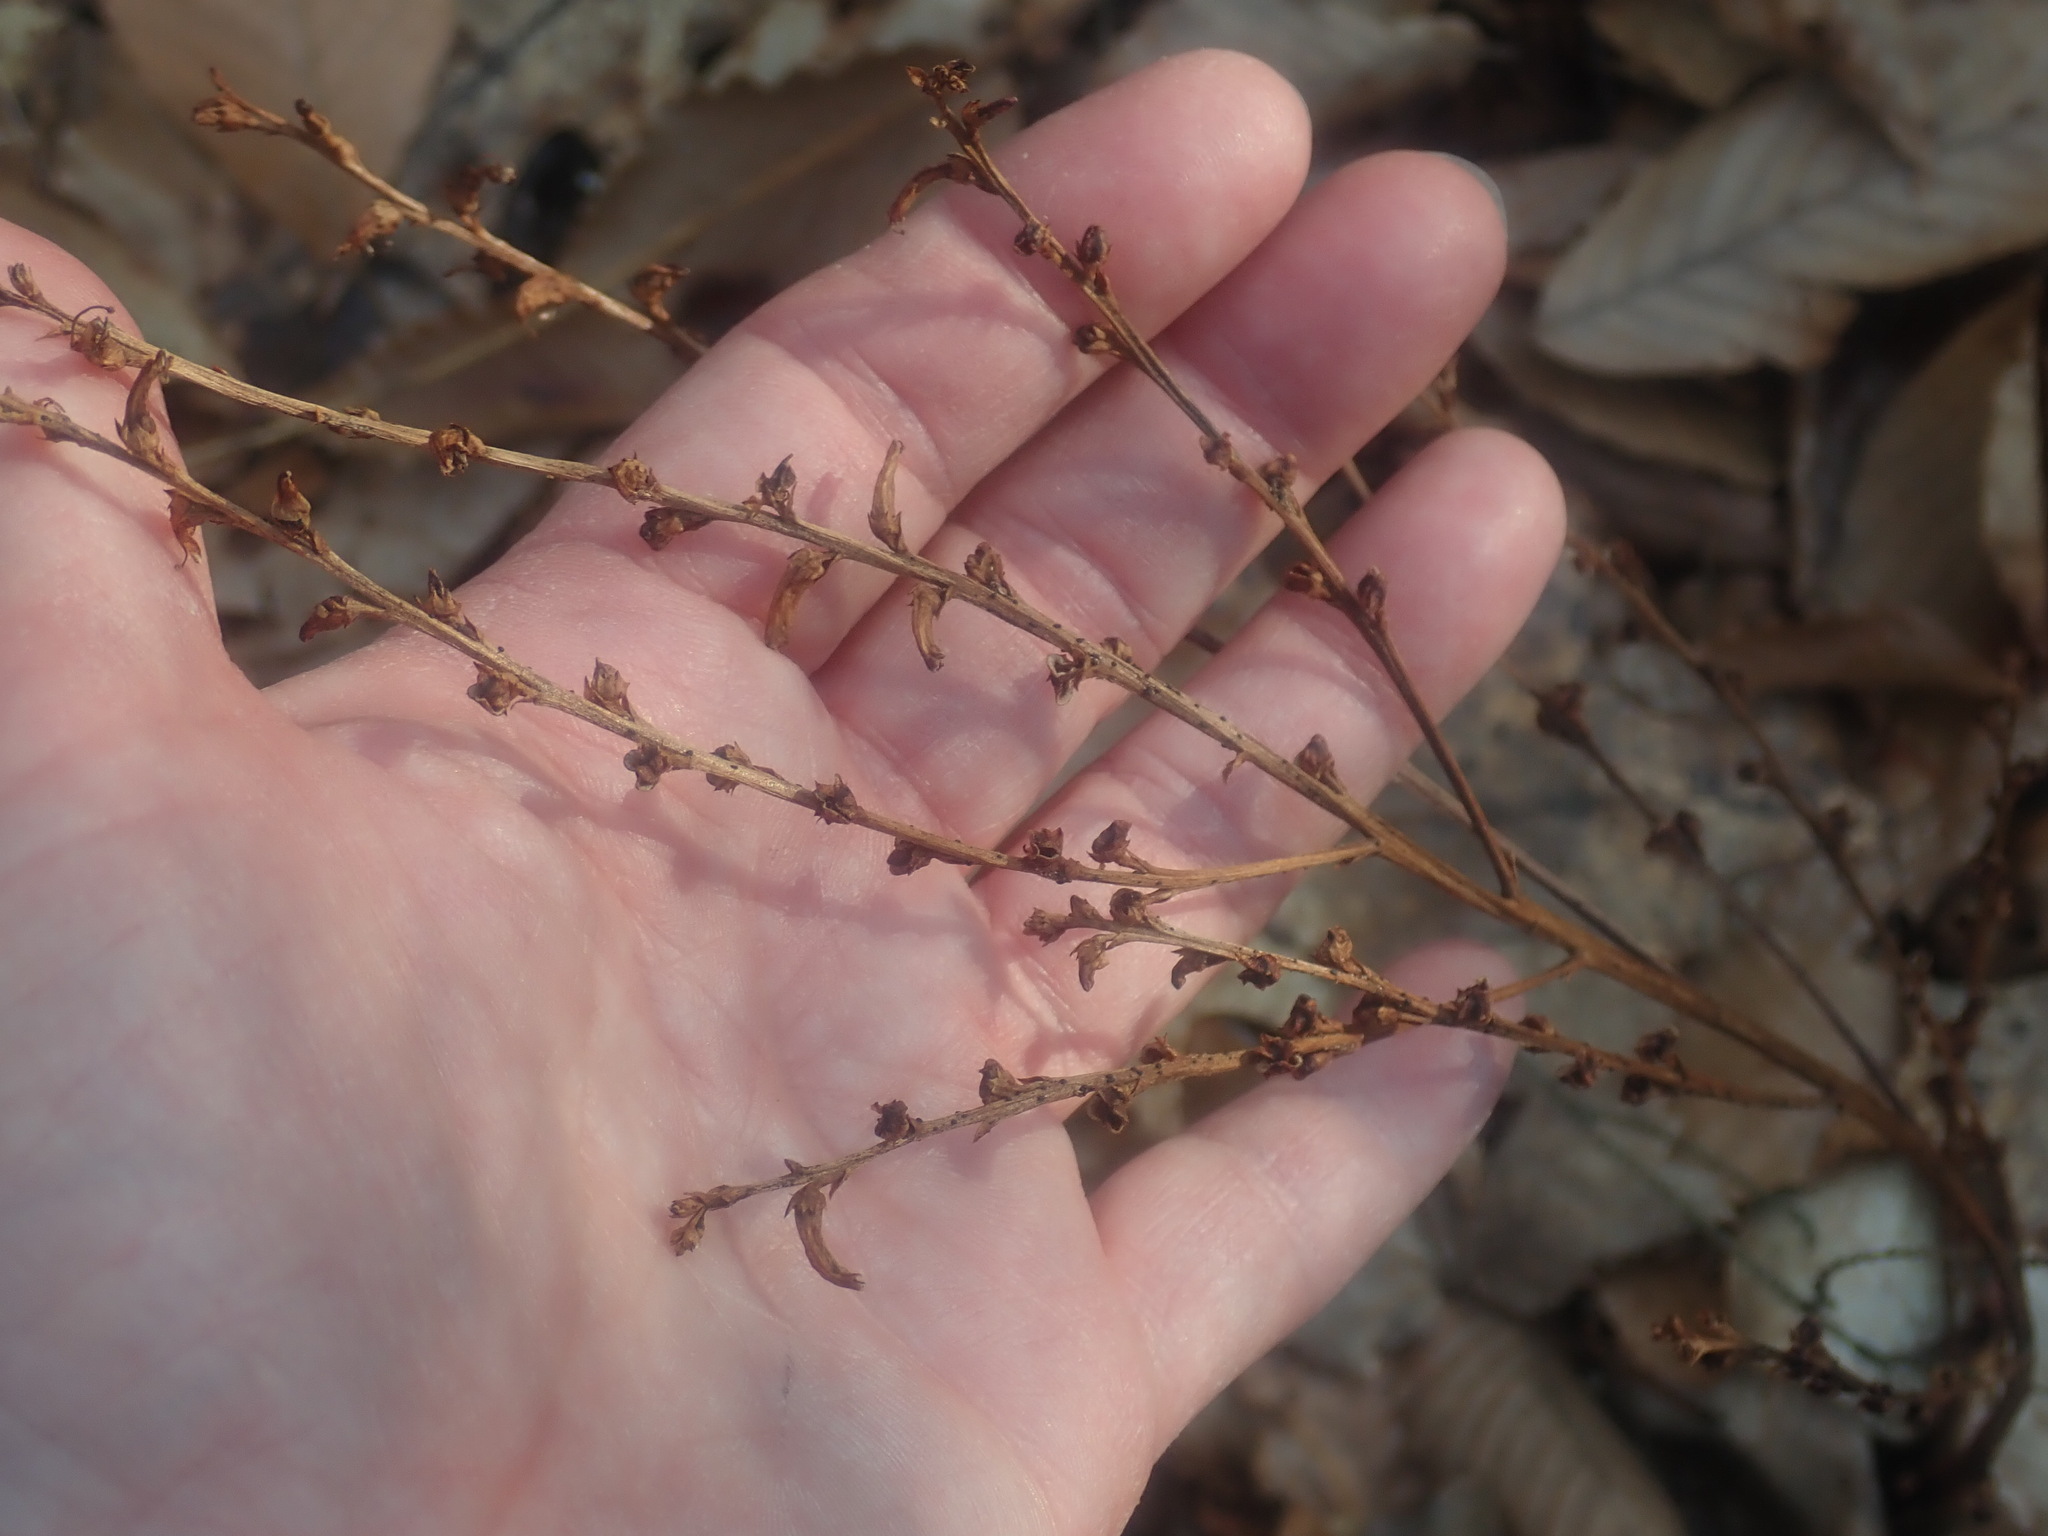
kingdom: Plantae
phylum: Tracheophyta
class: Magnoliopsida
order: Lamiales
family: Orobanchaceae
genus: Epifagus
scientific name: Epifagus virginiana
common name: Beechdrops
